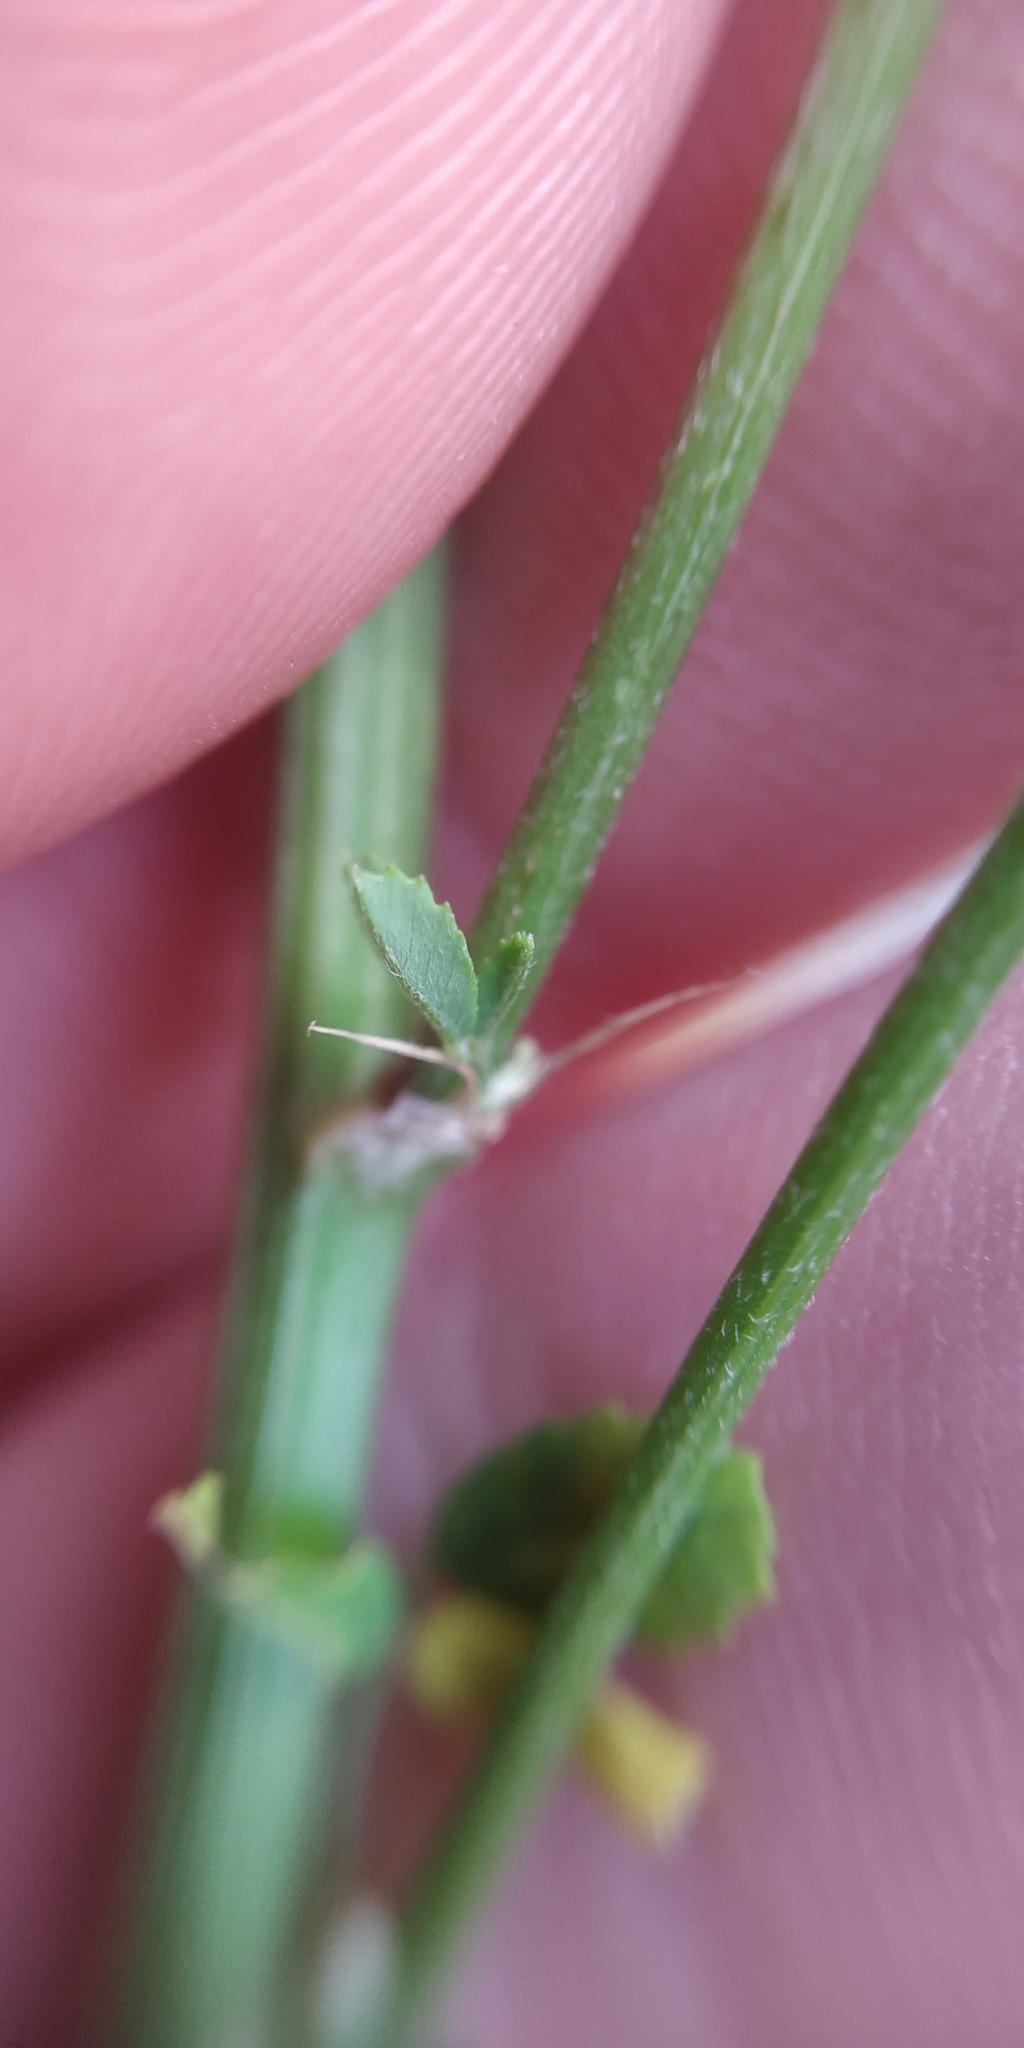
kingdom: Plantae
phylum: Tracheophyta
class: Magnoliopsida
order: Fabales
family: Fabaceae
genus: Melilotus
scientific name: Melilotus officinalis
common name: Sweetclover
